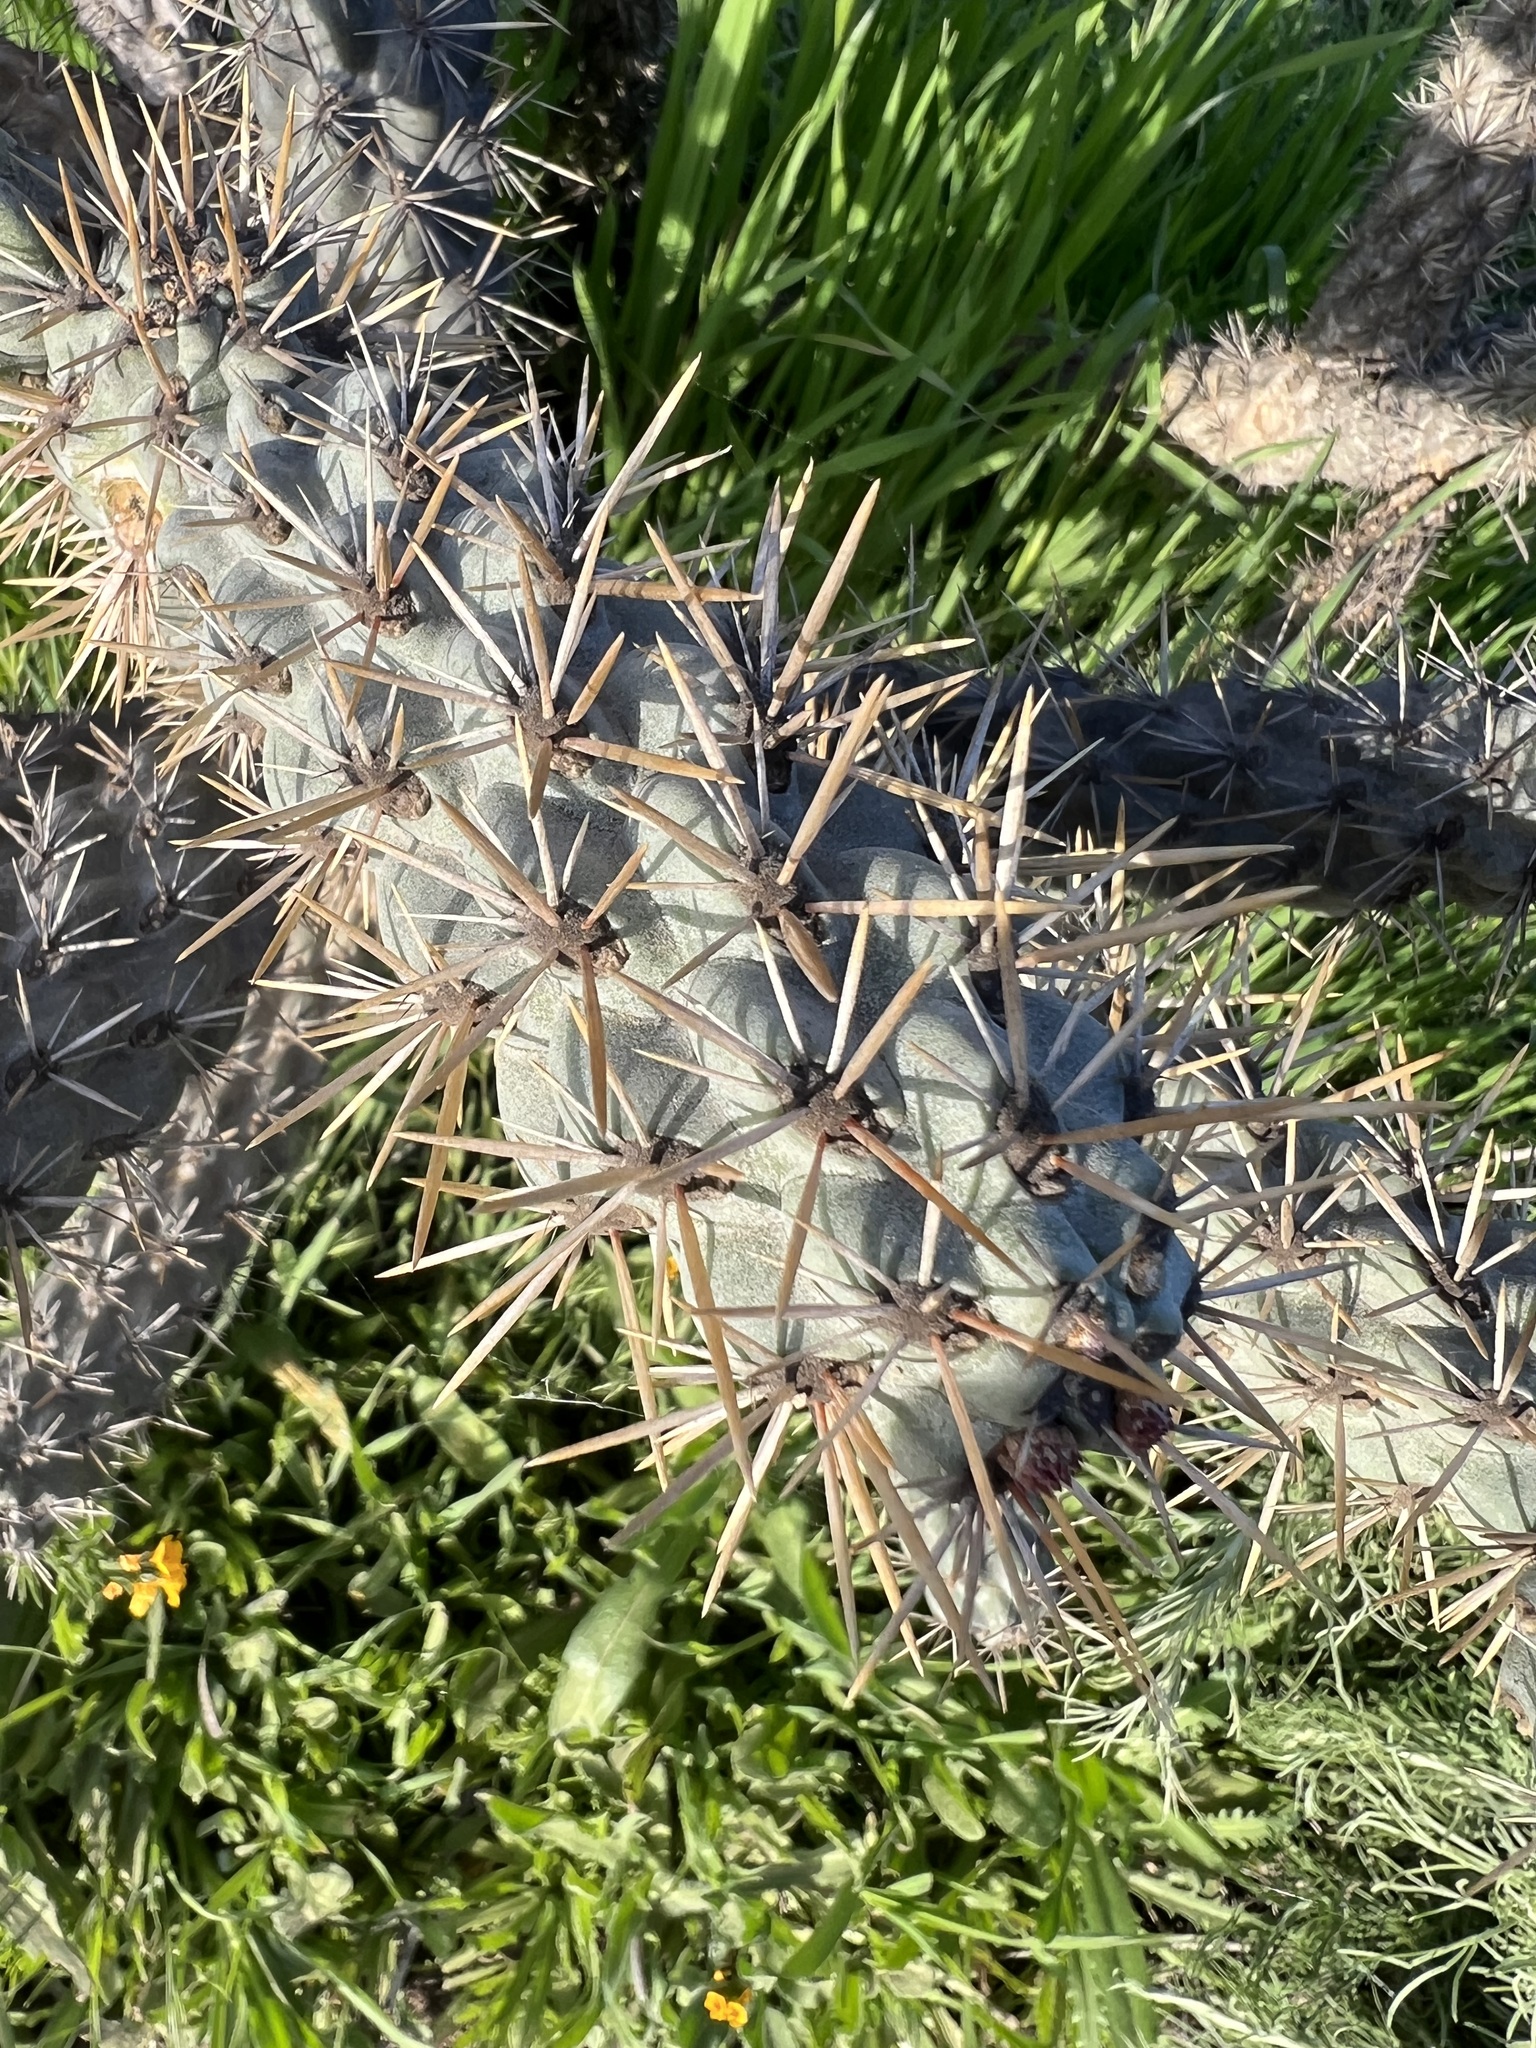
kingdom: Plantae
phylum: Tracheophyta
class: Magnoliopsida
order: Caryophyllales
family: Cactaceae
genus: Cylindropuntia
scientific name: Cylindropuntia prolifera
